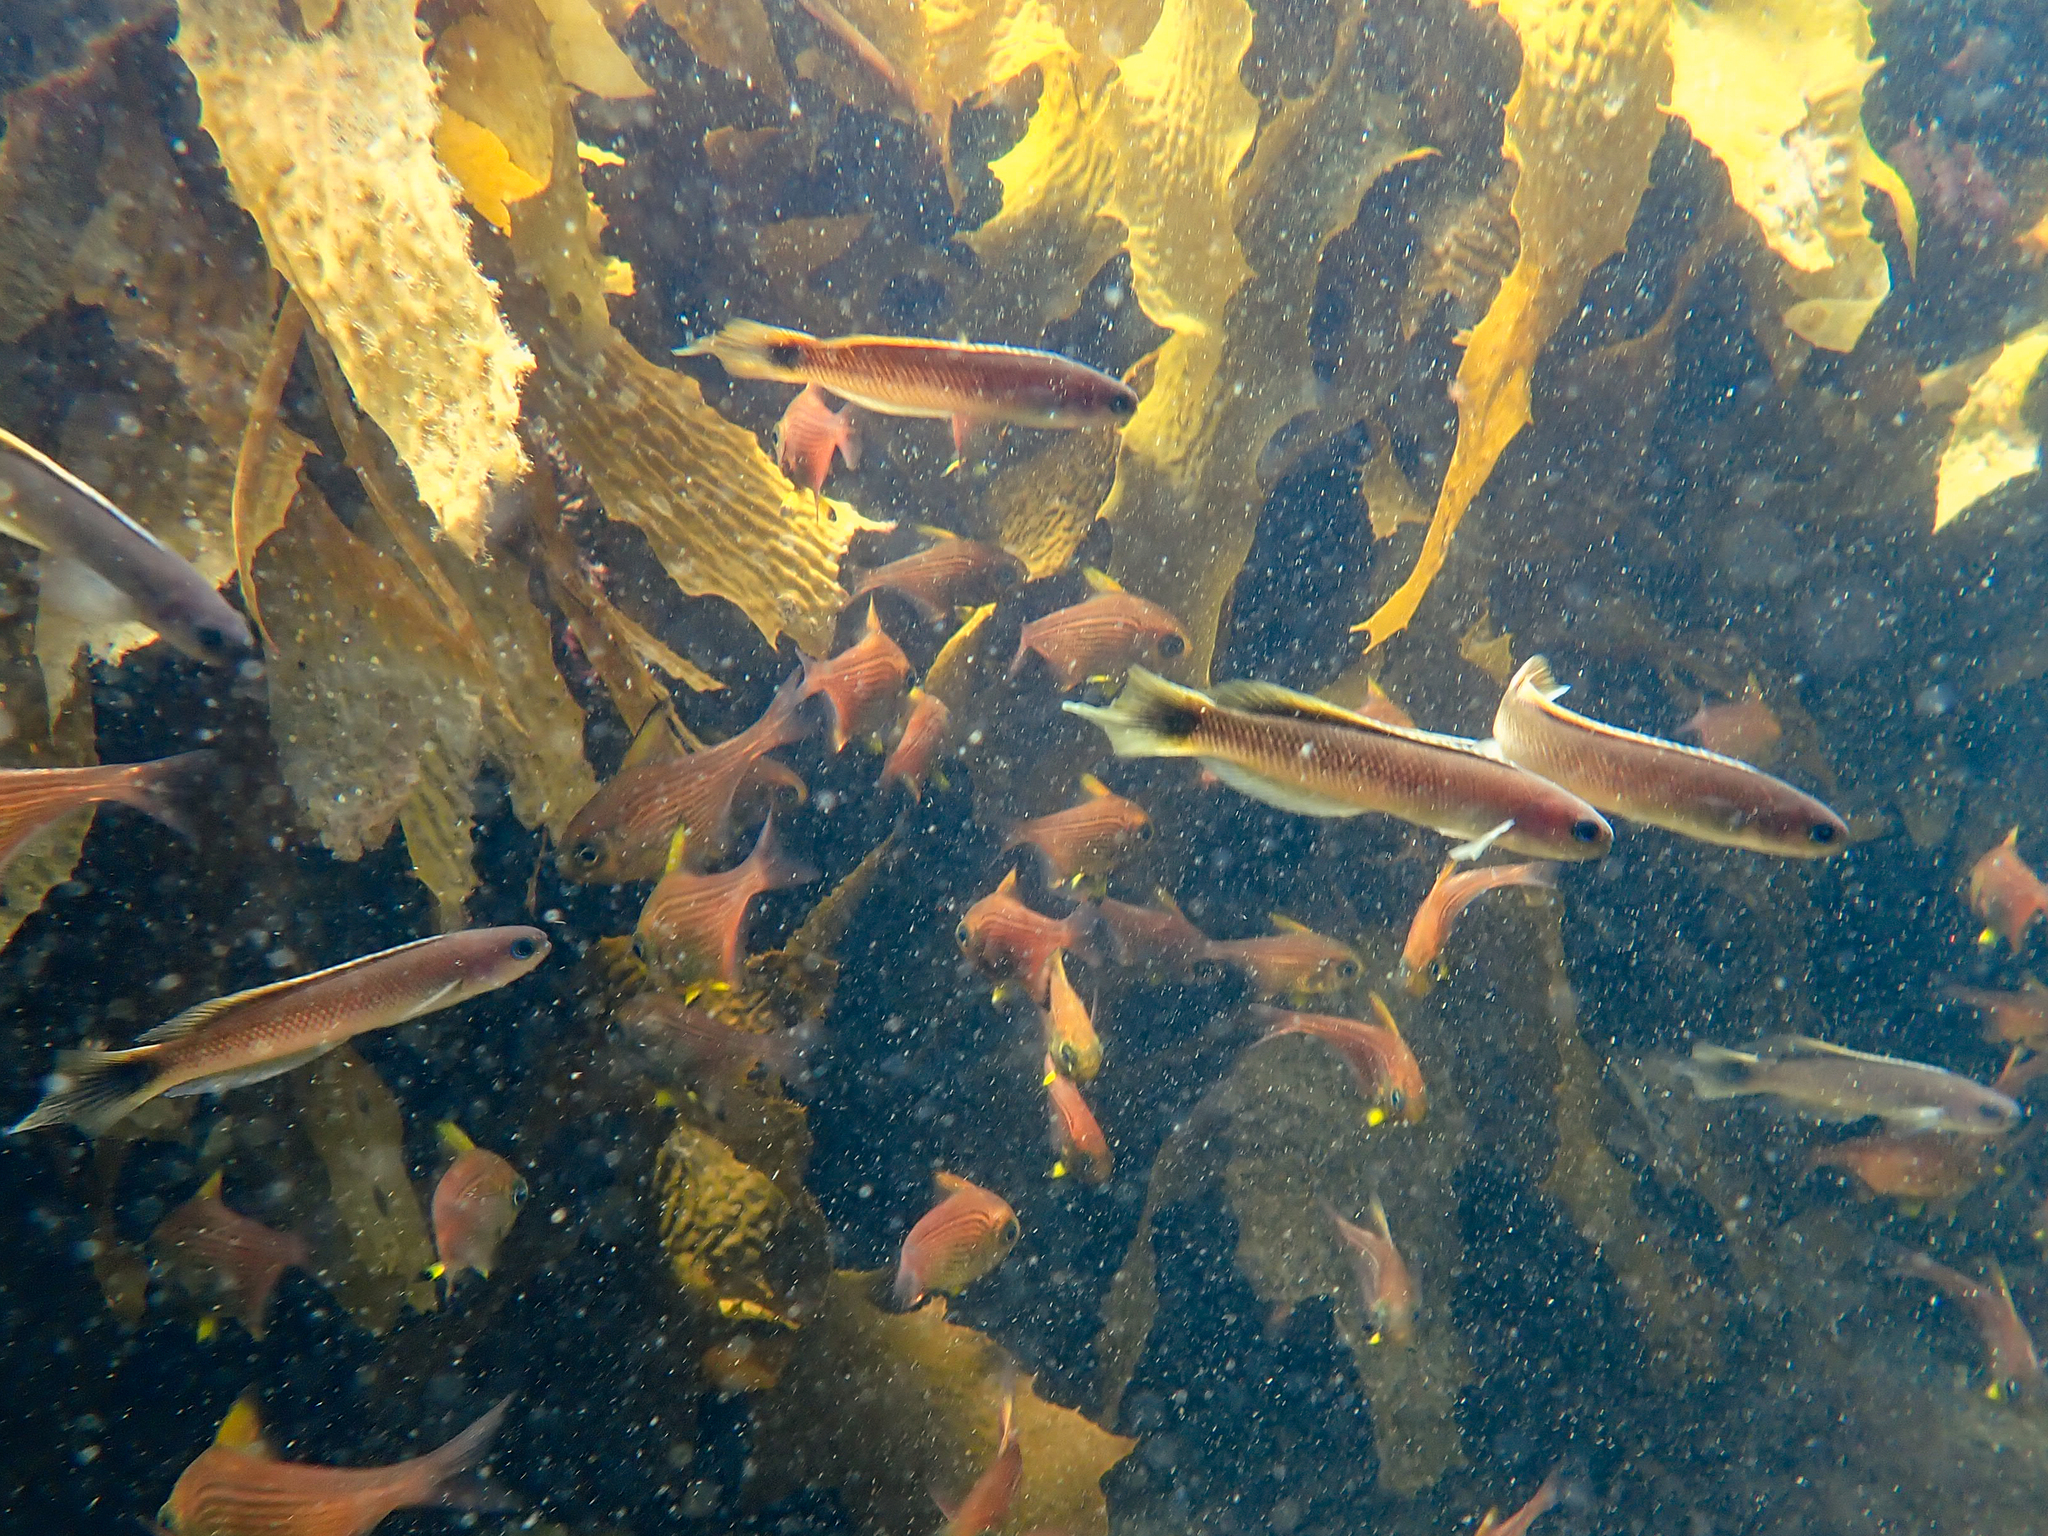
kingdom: Animalia
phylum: Chordata
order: Perciformes
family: Plesiopidae
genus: Trachinops
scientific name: Trachinops caudimaculatus
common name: Blotched-tailed trachinops
